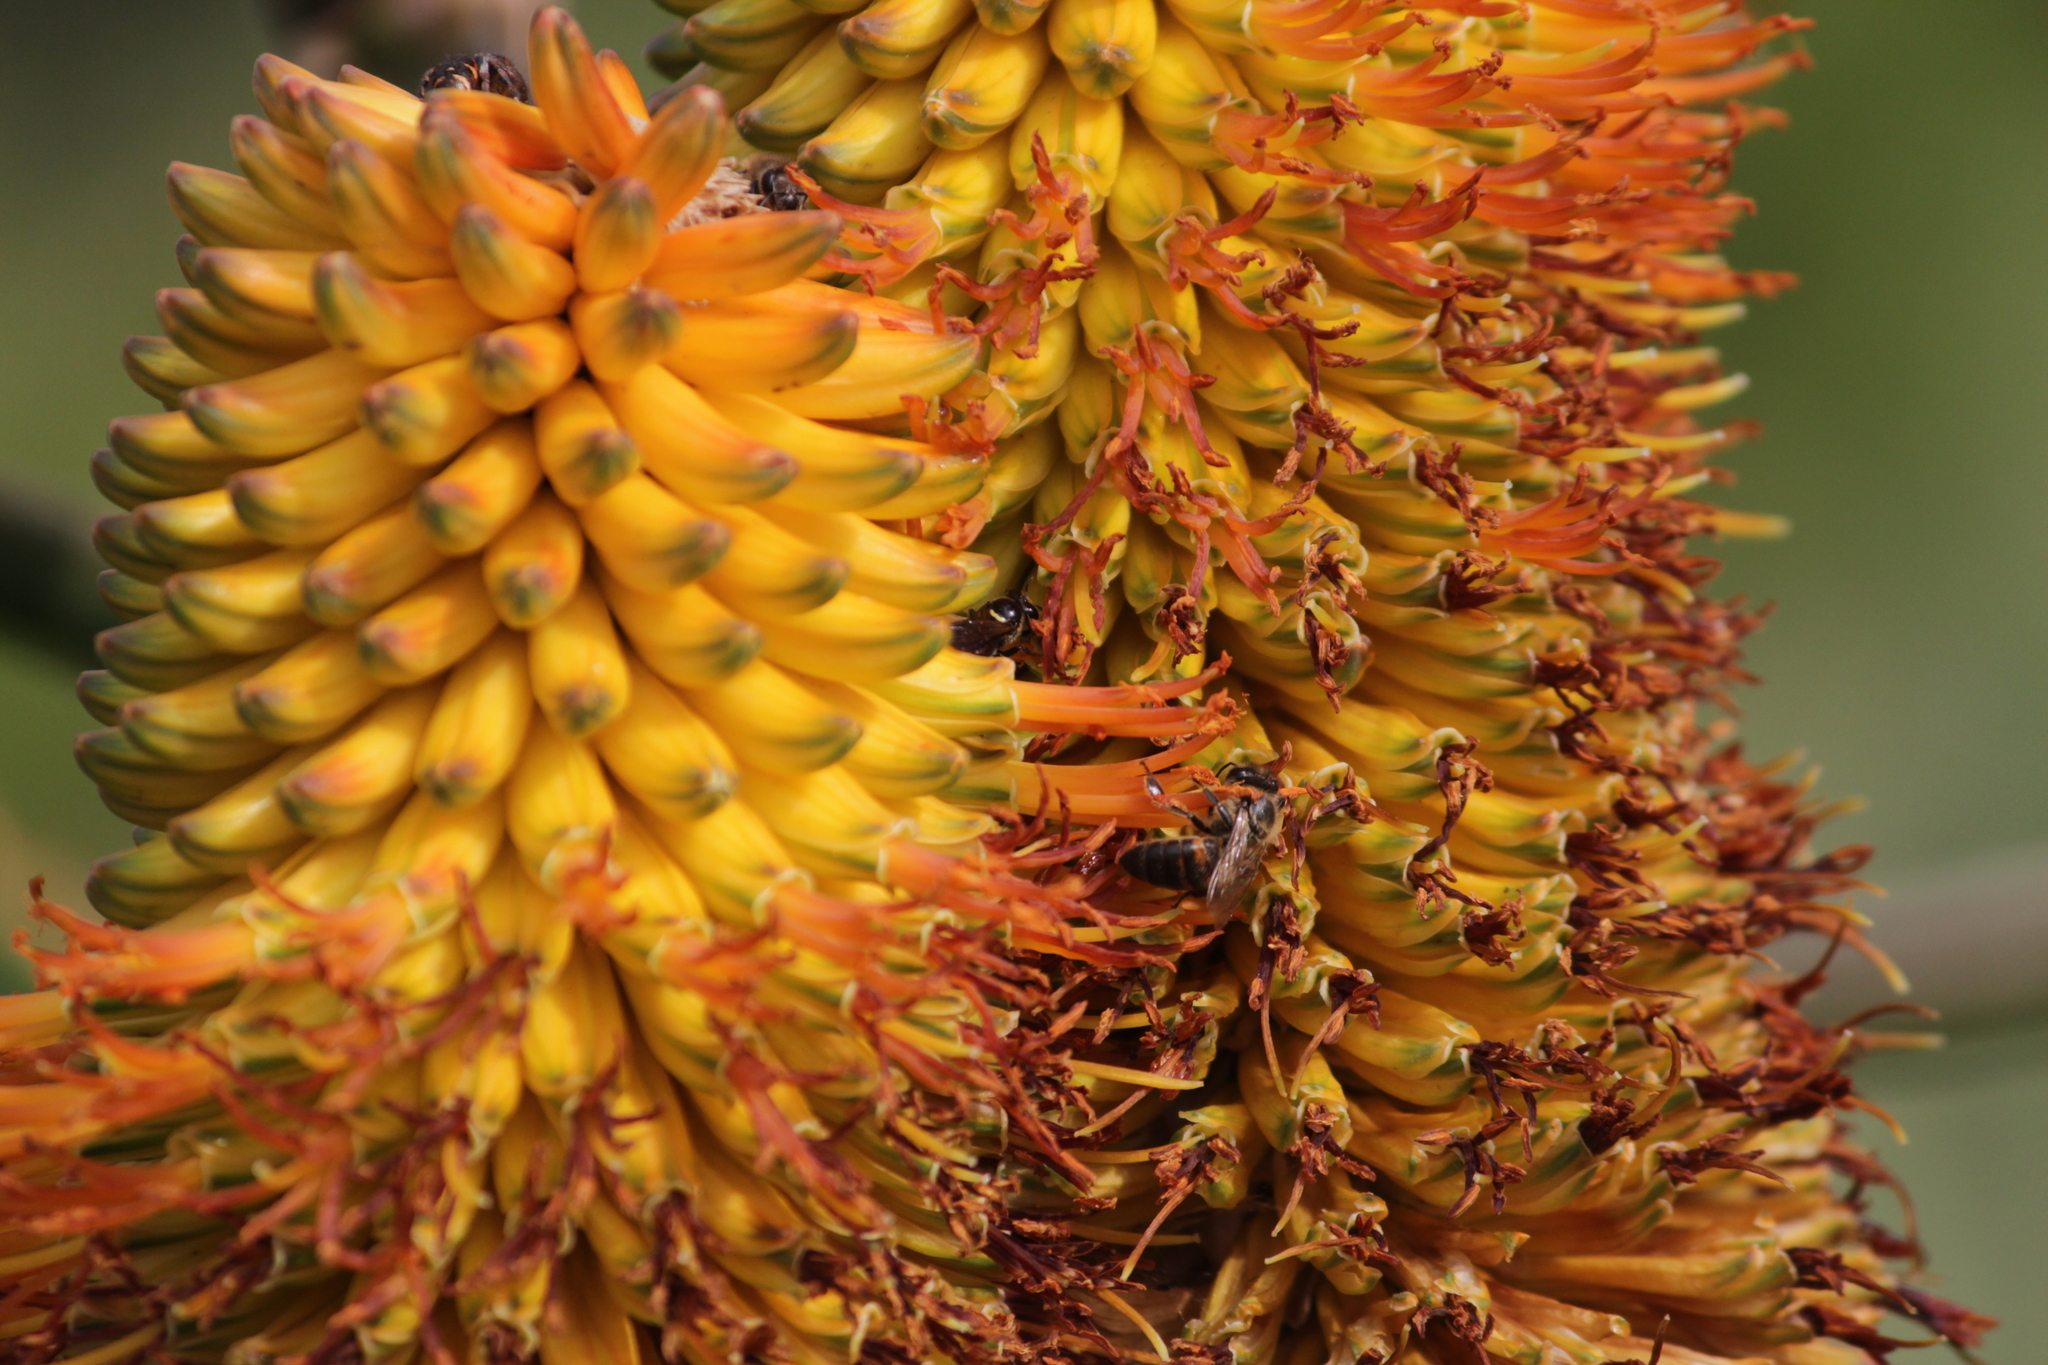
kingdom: Animalia
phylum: Arthropoda
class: Insecta
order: Hymenoptera
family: Apidae
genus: Apis
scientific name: Apis mellifera
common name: Honey bee
